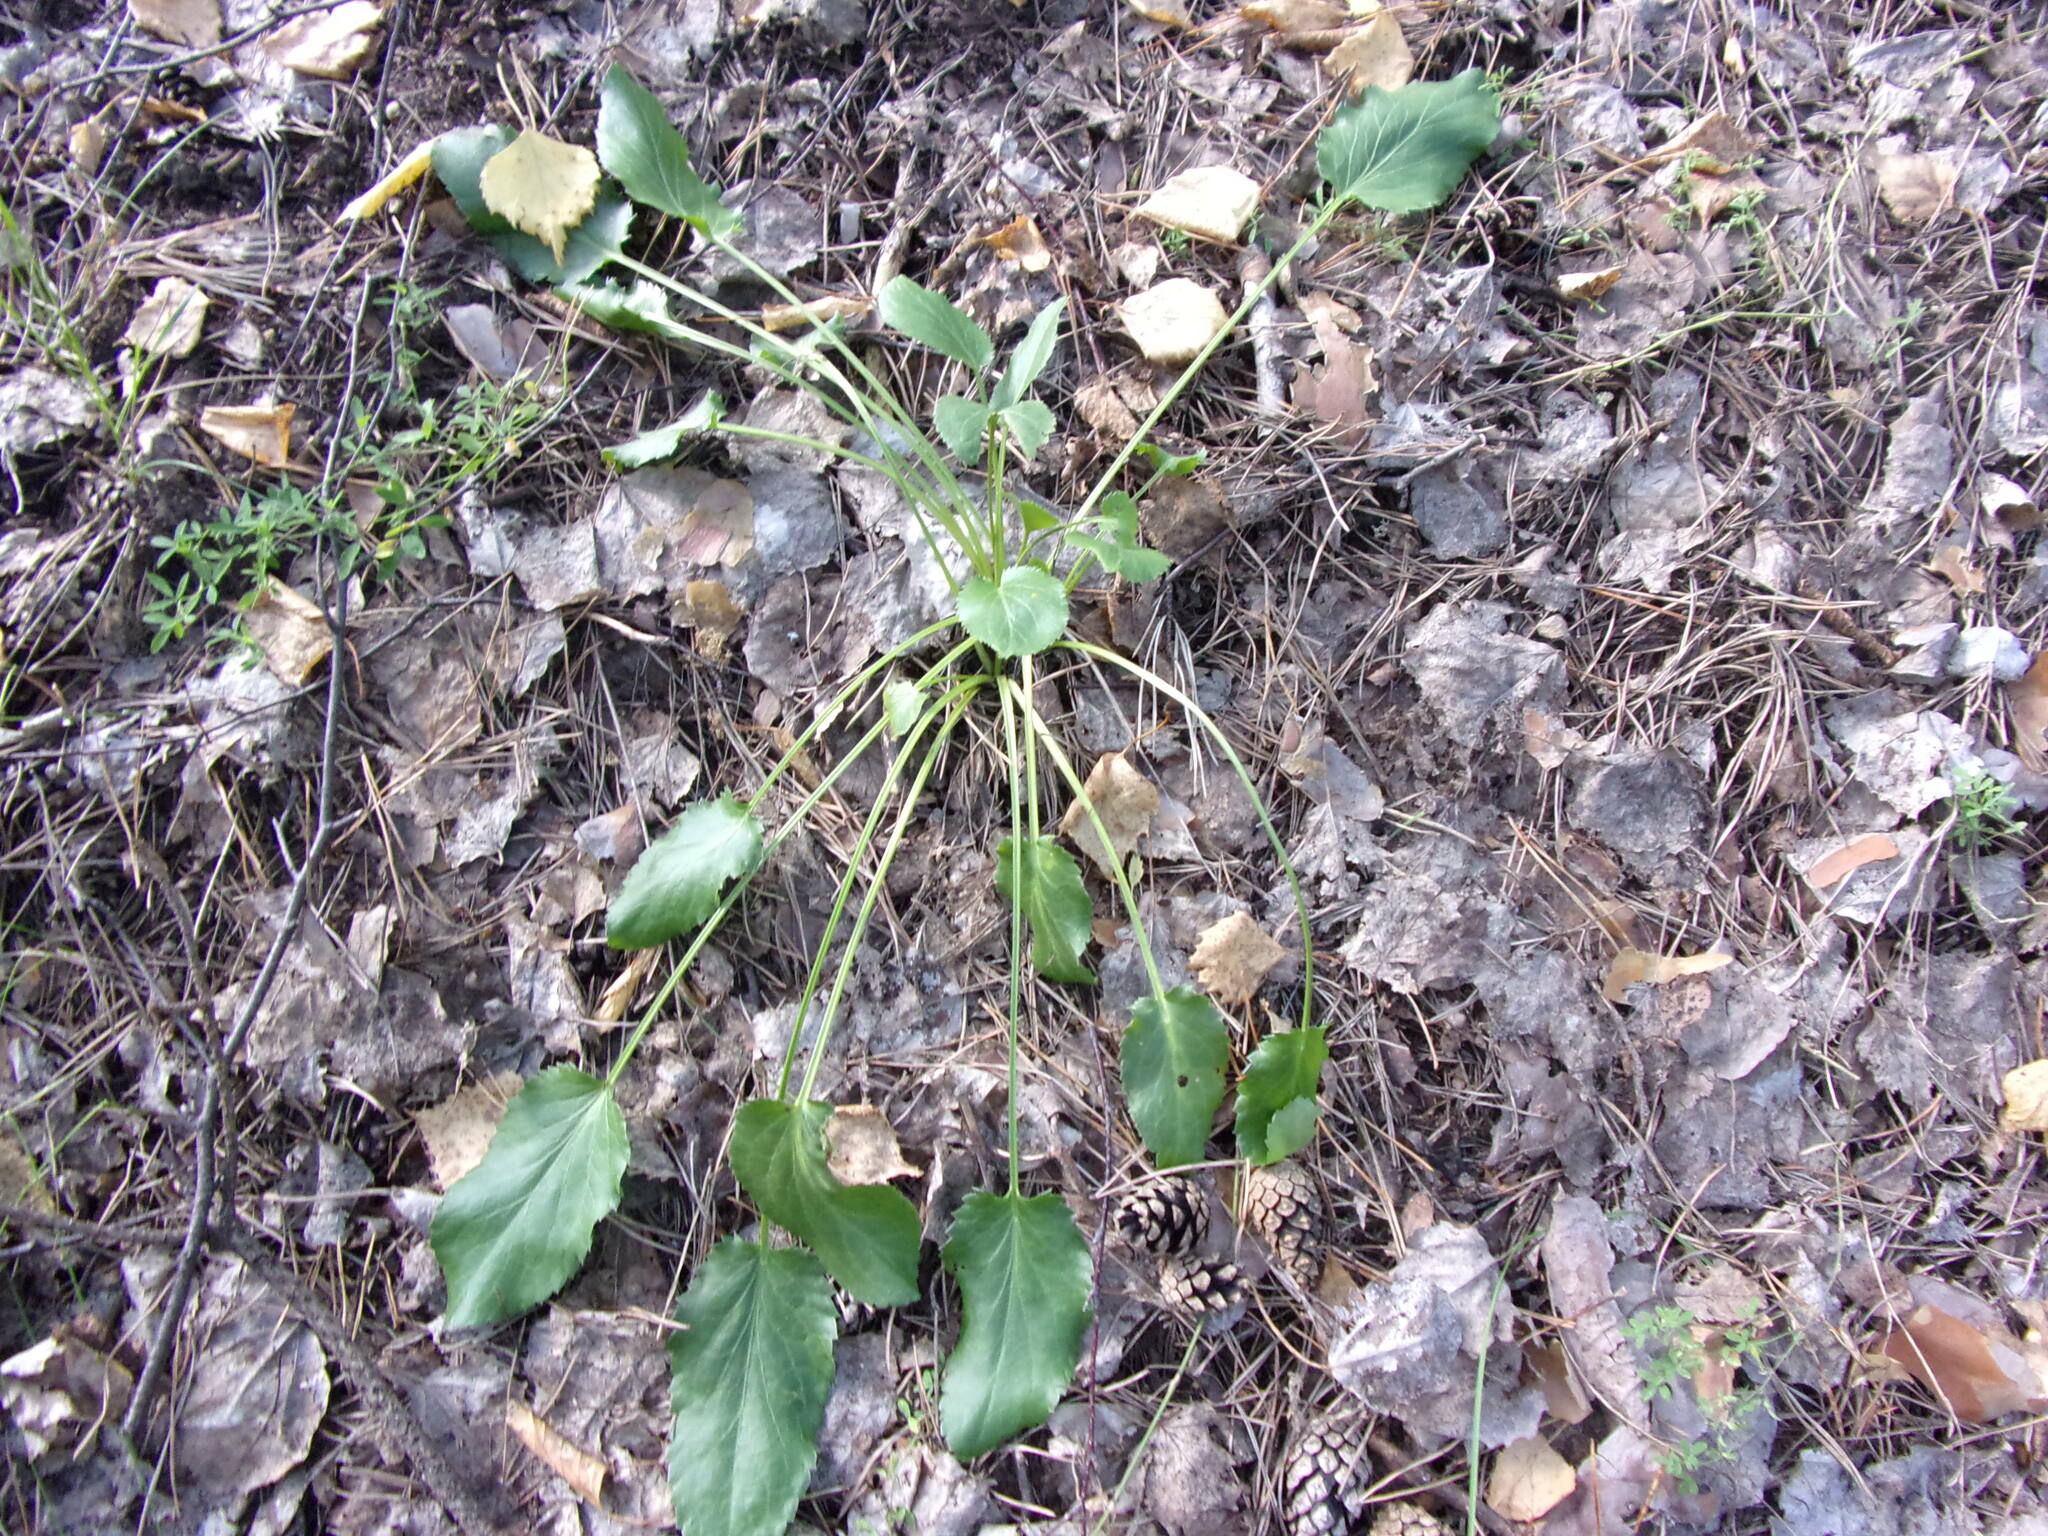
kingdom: Plantae
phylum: Tracheophyta
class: Magnoliopsida
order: Apiales
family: Apiaceae
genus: Eryngium
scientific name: Eryngium planum
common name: Blue eryngo
